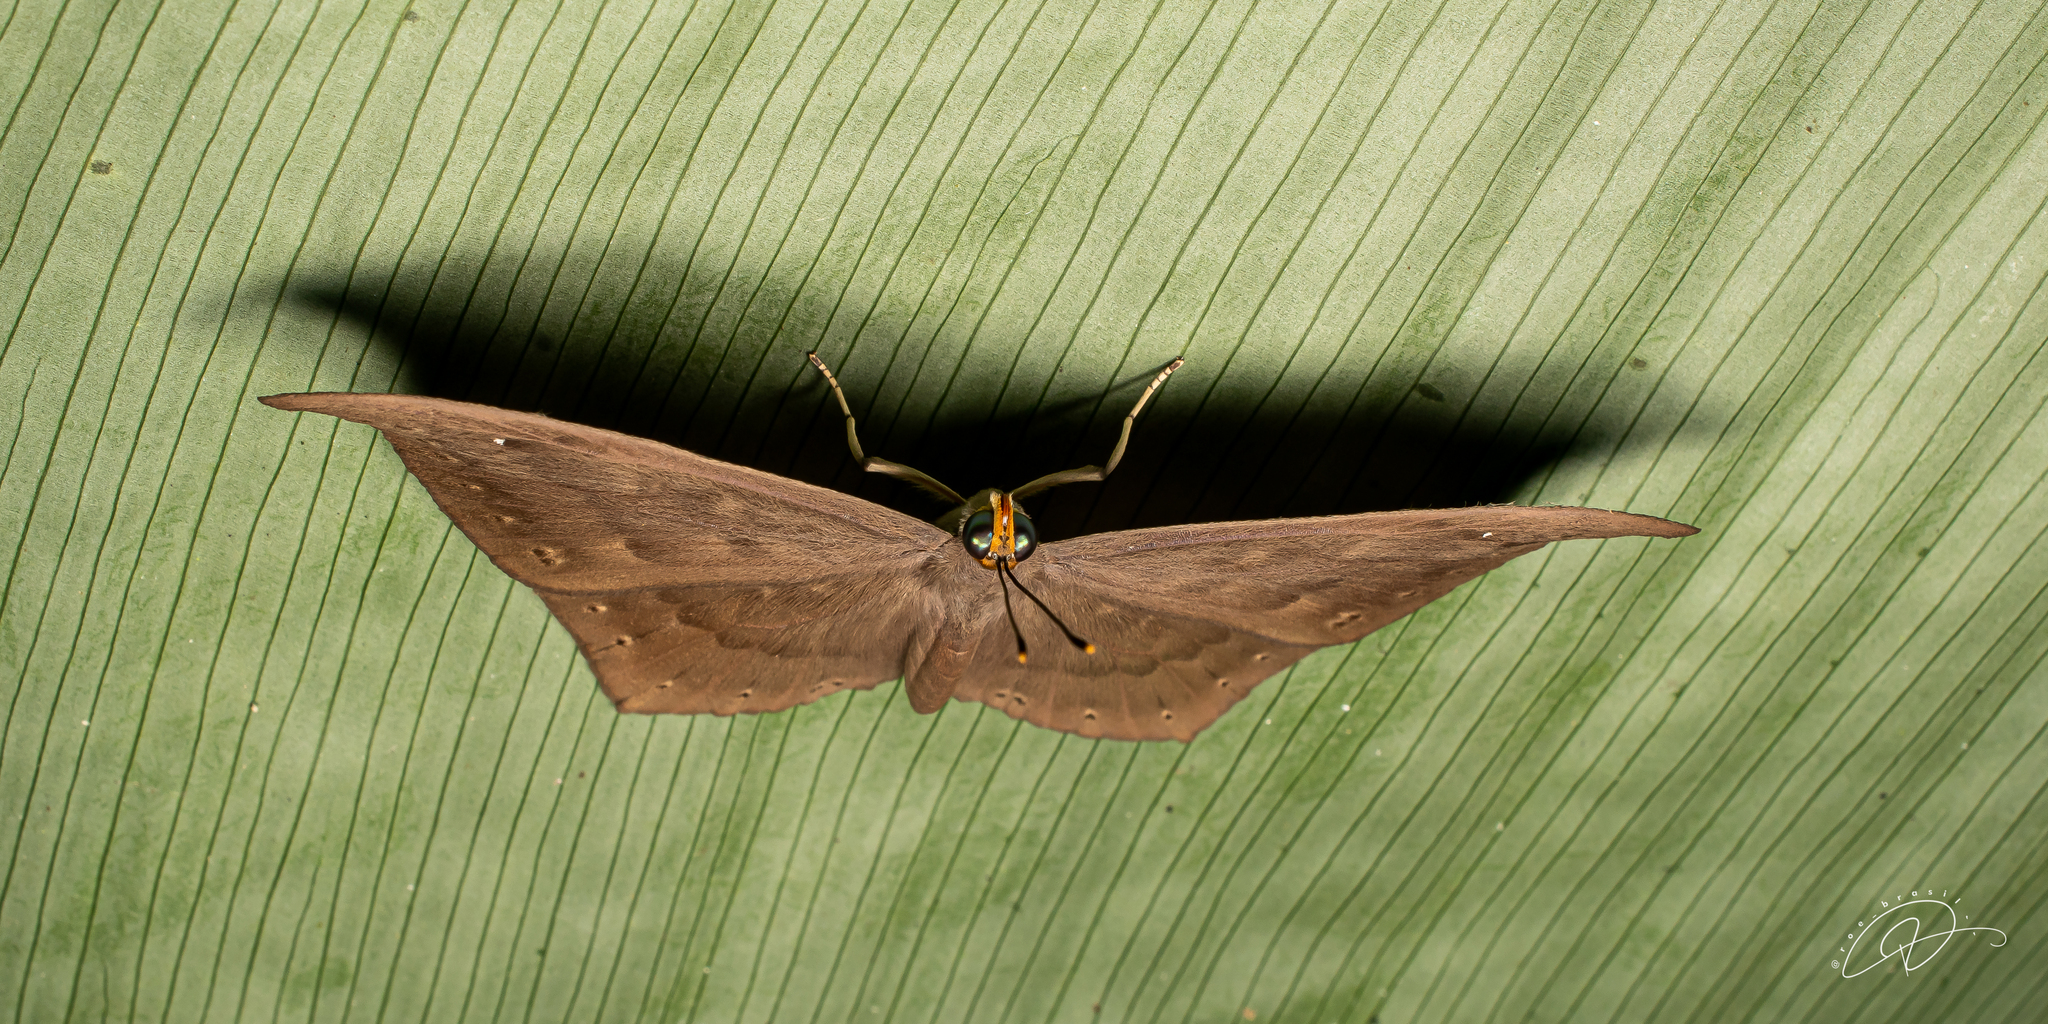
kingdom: Animalia
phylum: Cnidaria
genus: Eurybia
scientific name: Eurybia pergaea
